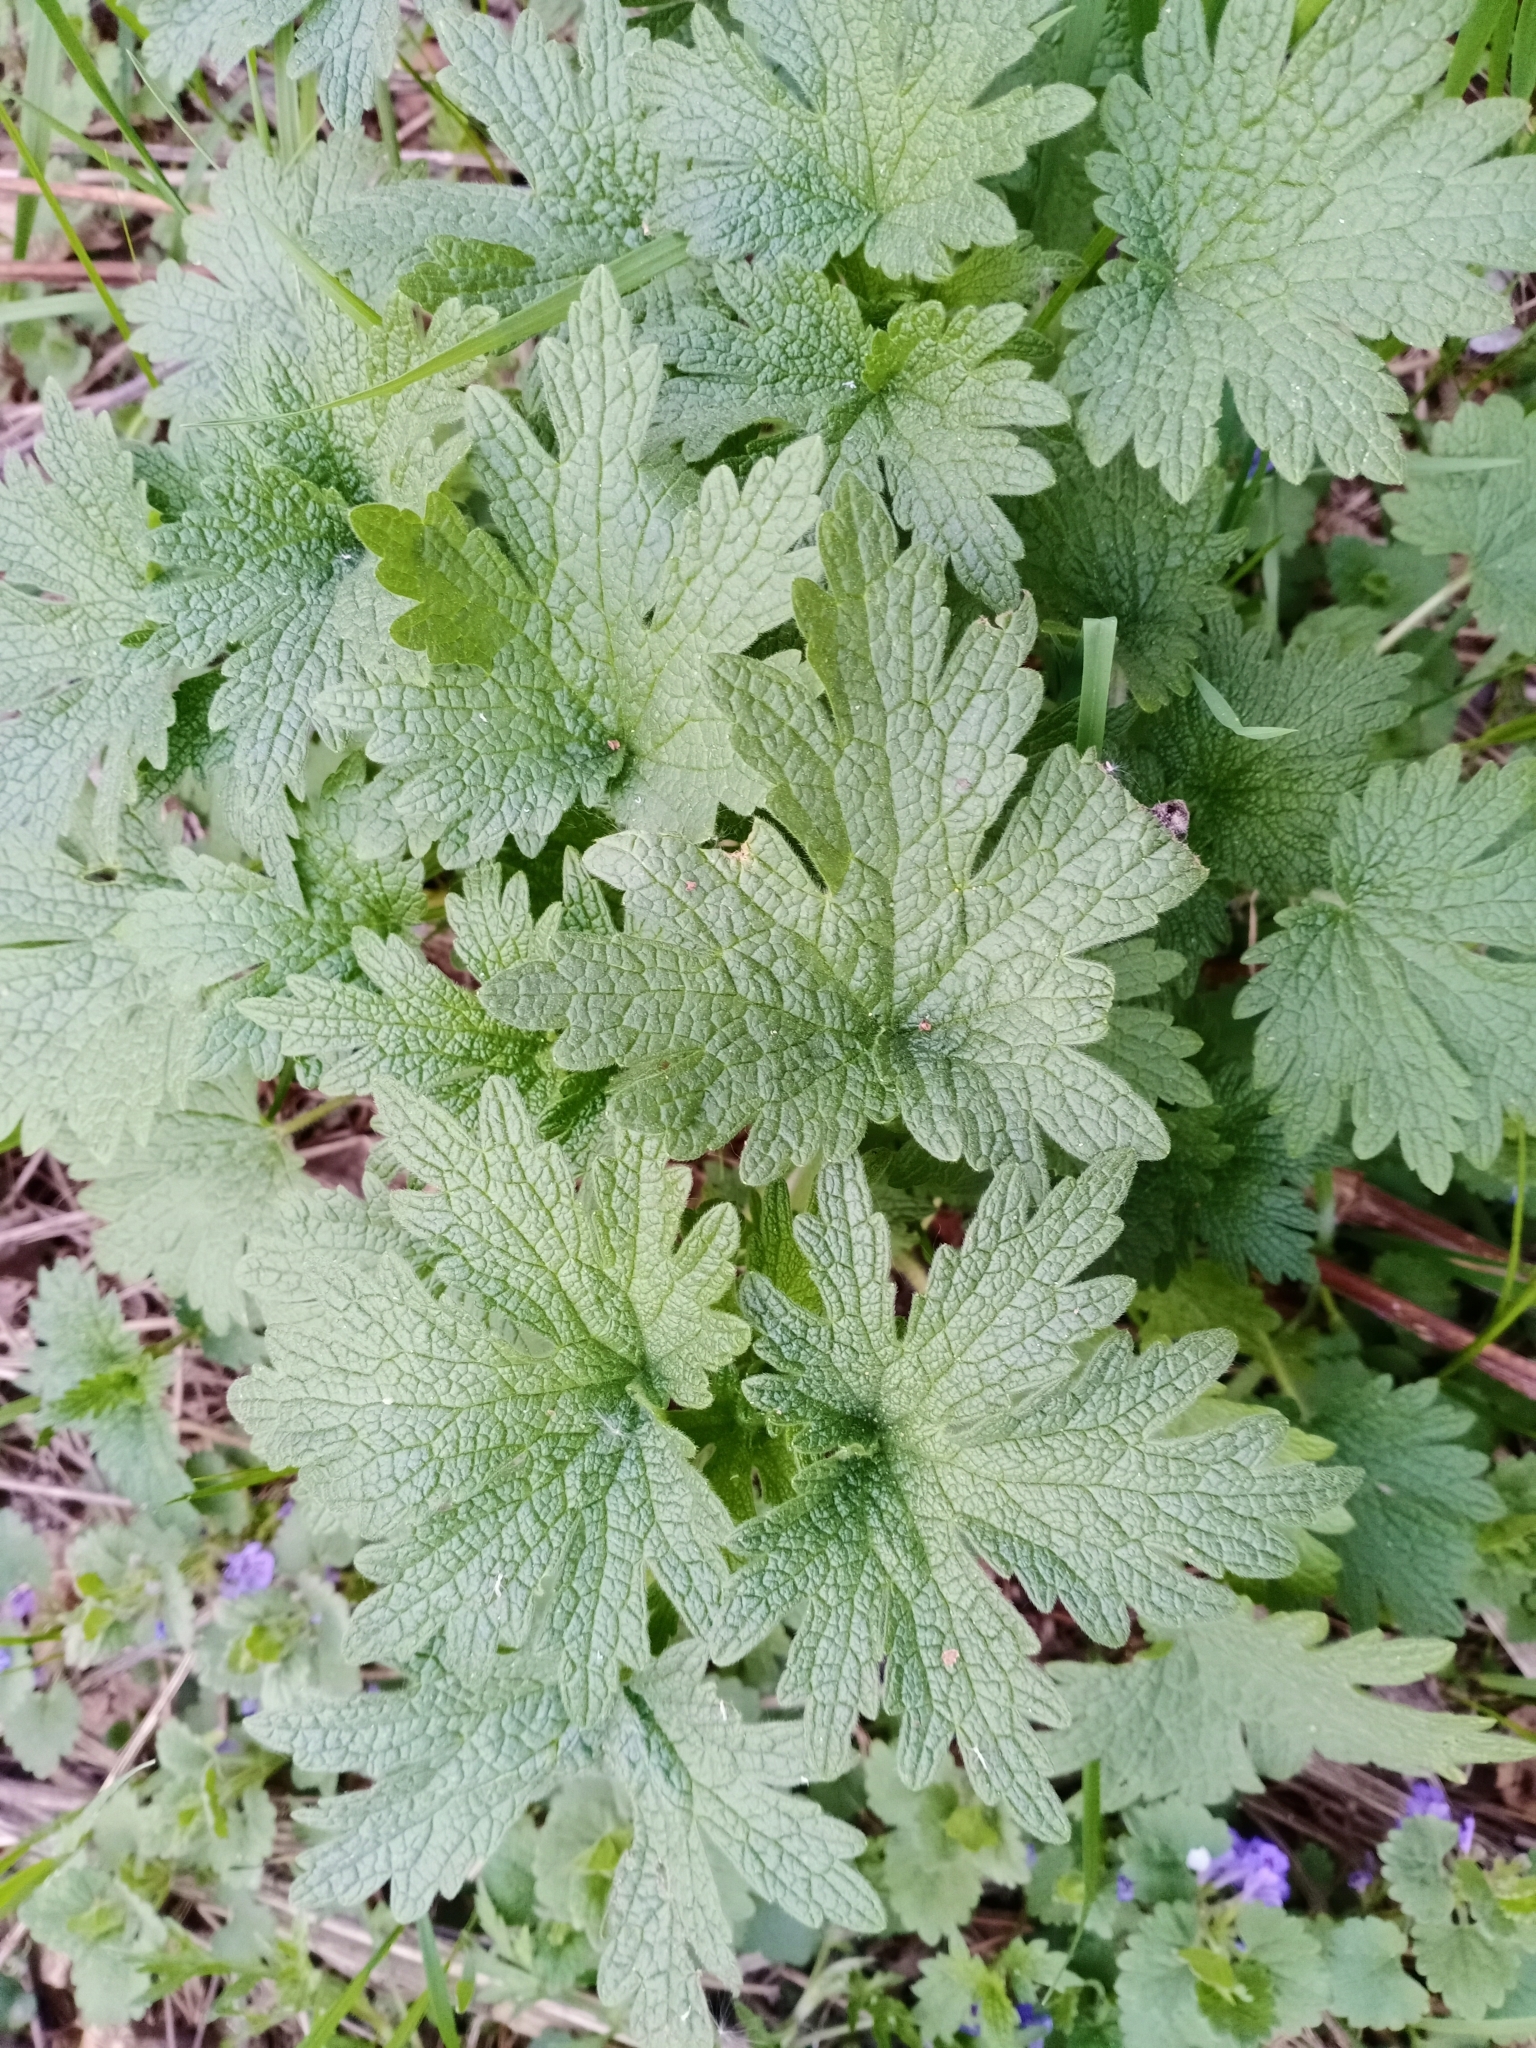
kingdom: Plantae
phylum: Tracheophyta
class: Magnoliopsida
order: Lamiales
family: Lamiaceae
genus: Leonurus
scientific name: Leonurus quinquelobatus
